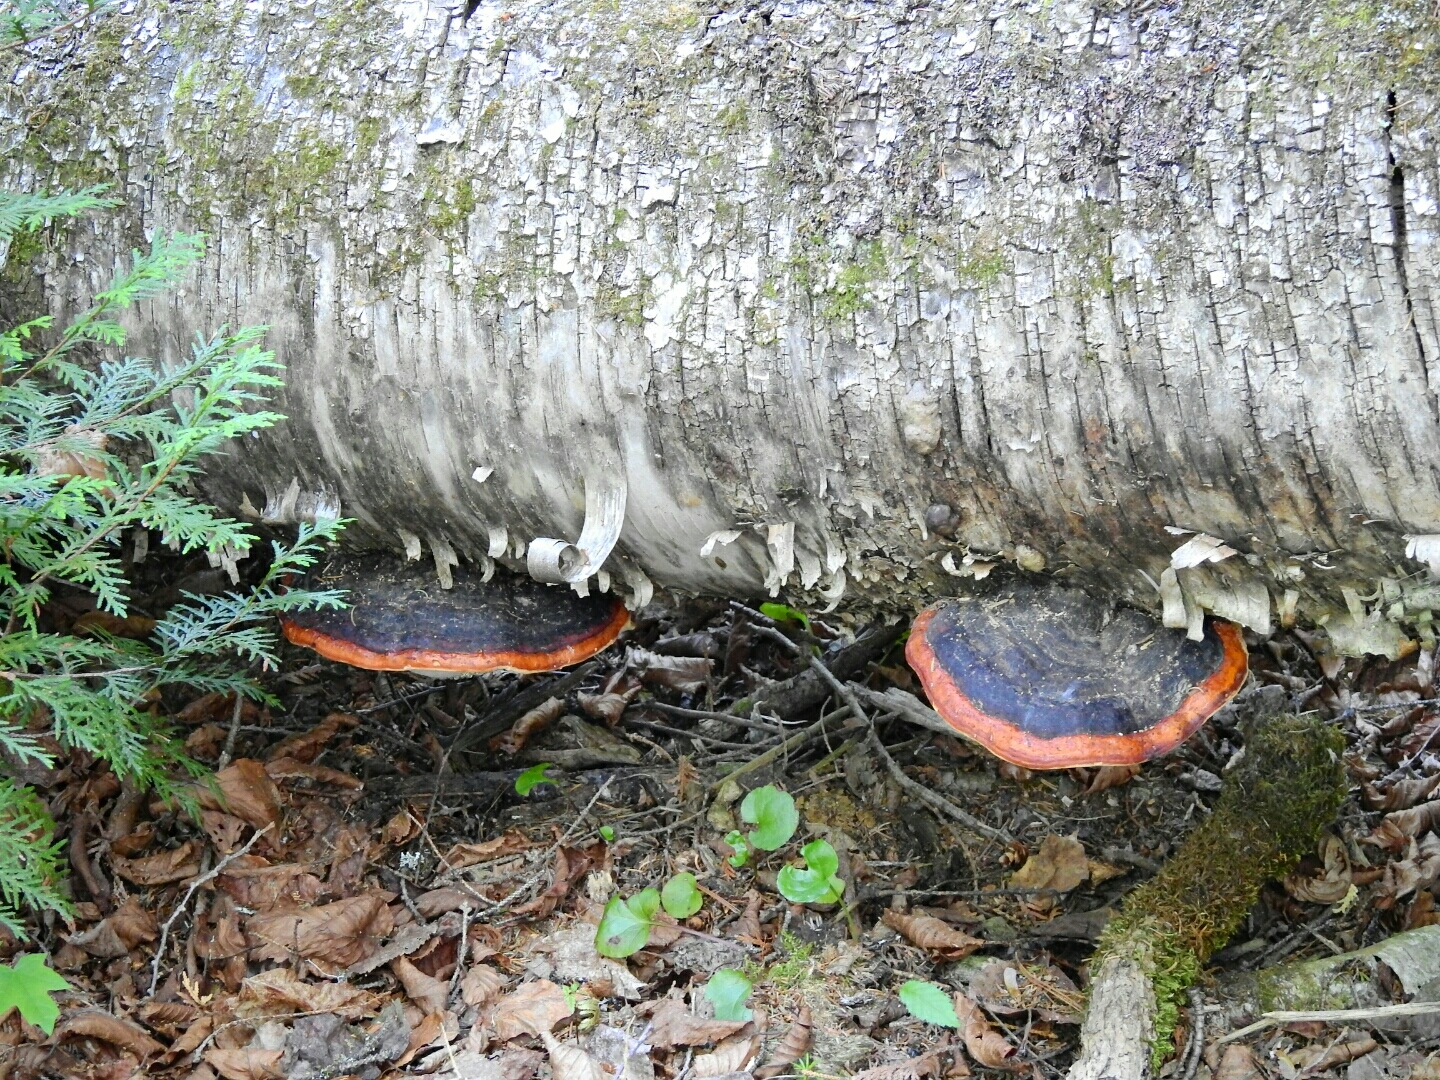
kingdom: Fungi
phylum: Basidiomycota
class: Agaricomycetes
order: Polyporales
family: Fomitopsidaceae
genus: Fomitopsis
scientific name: Fomitopsis mounceae
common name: Northern red belt
